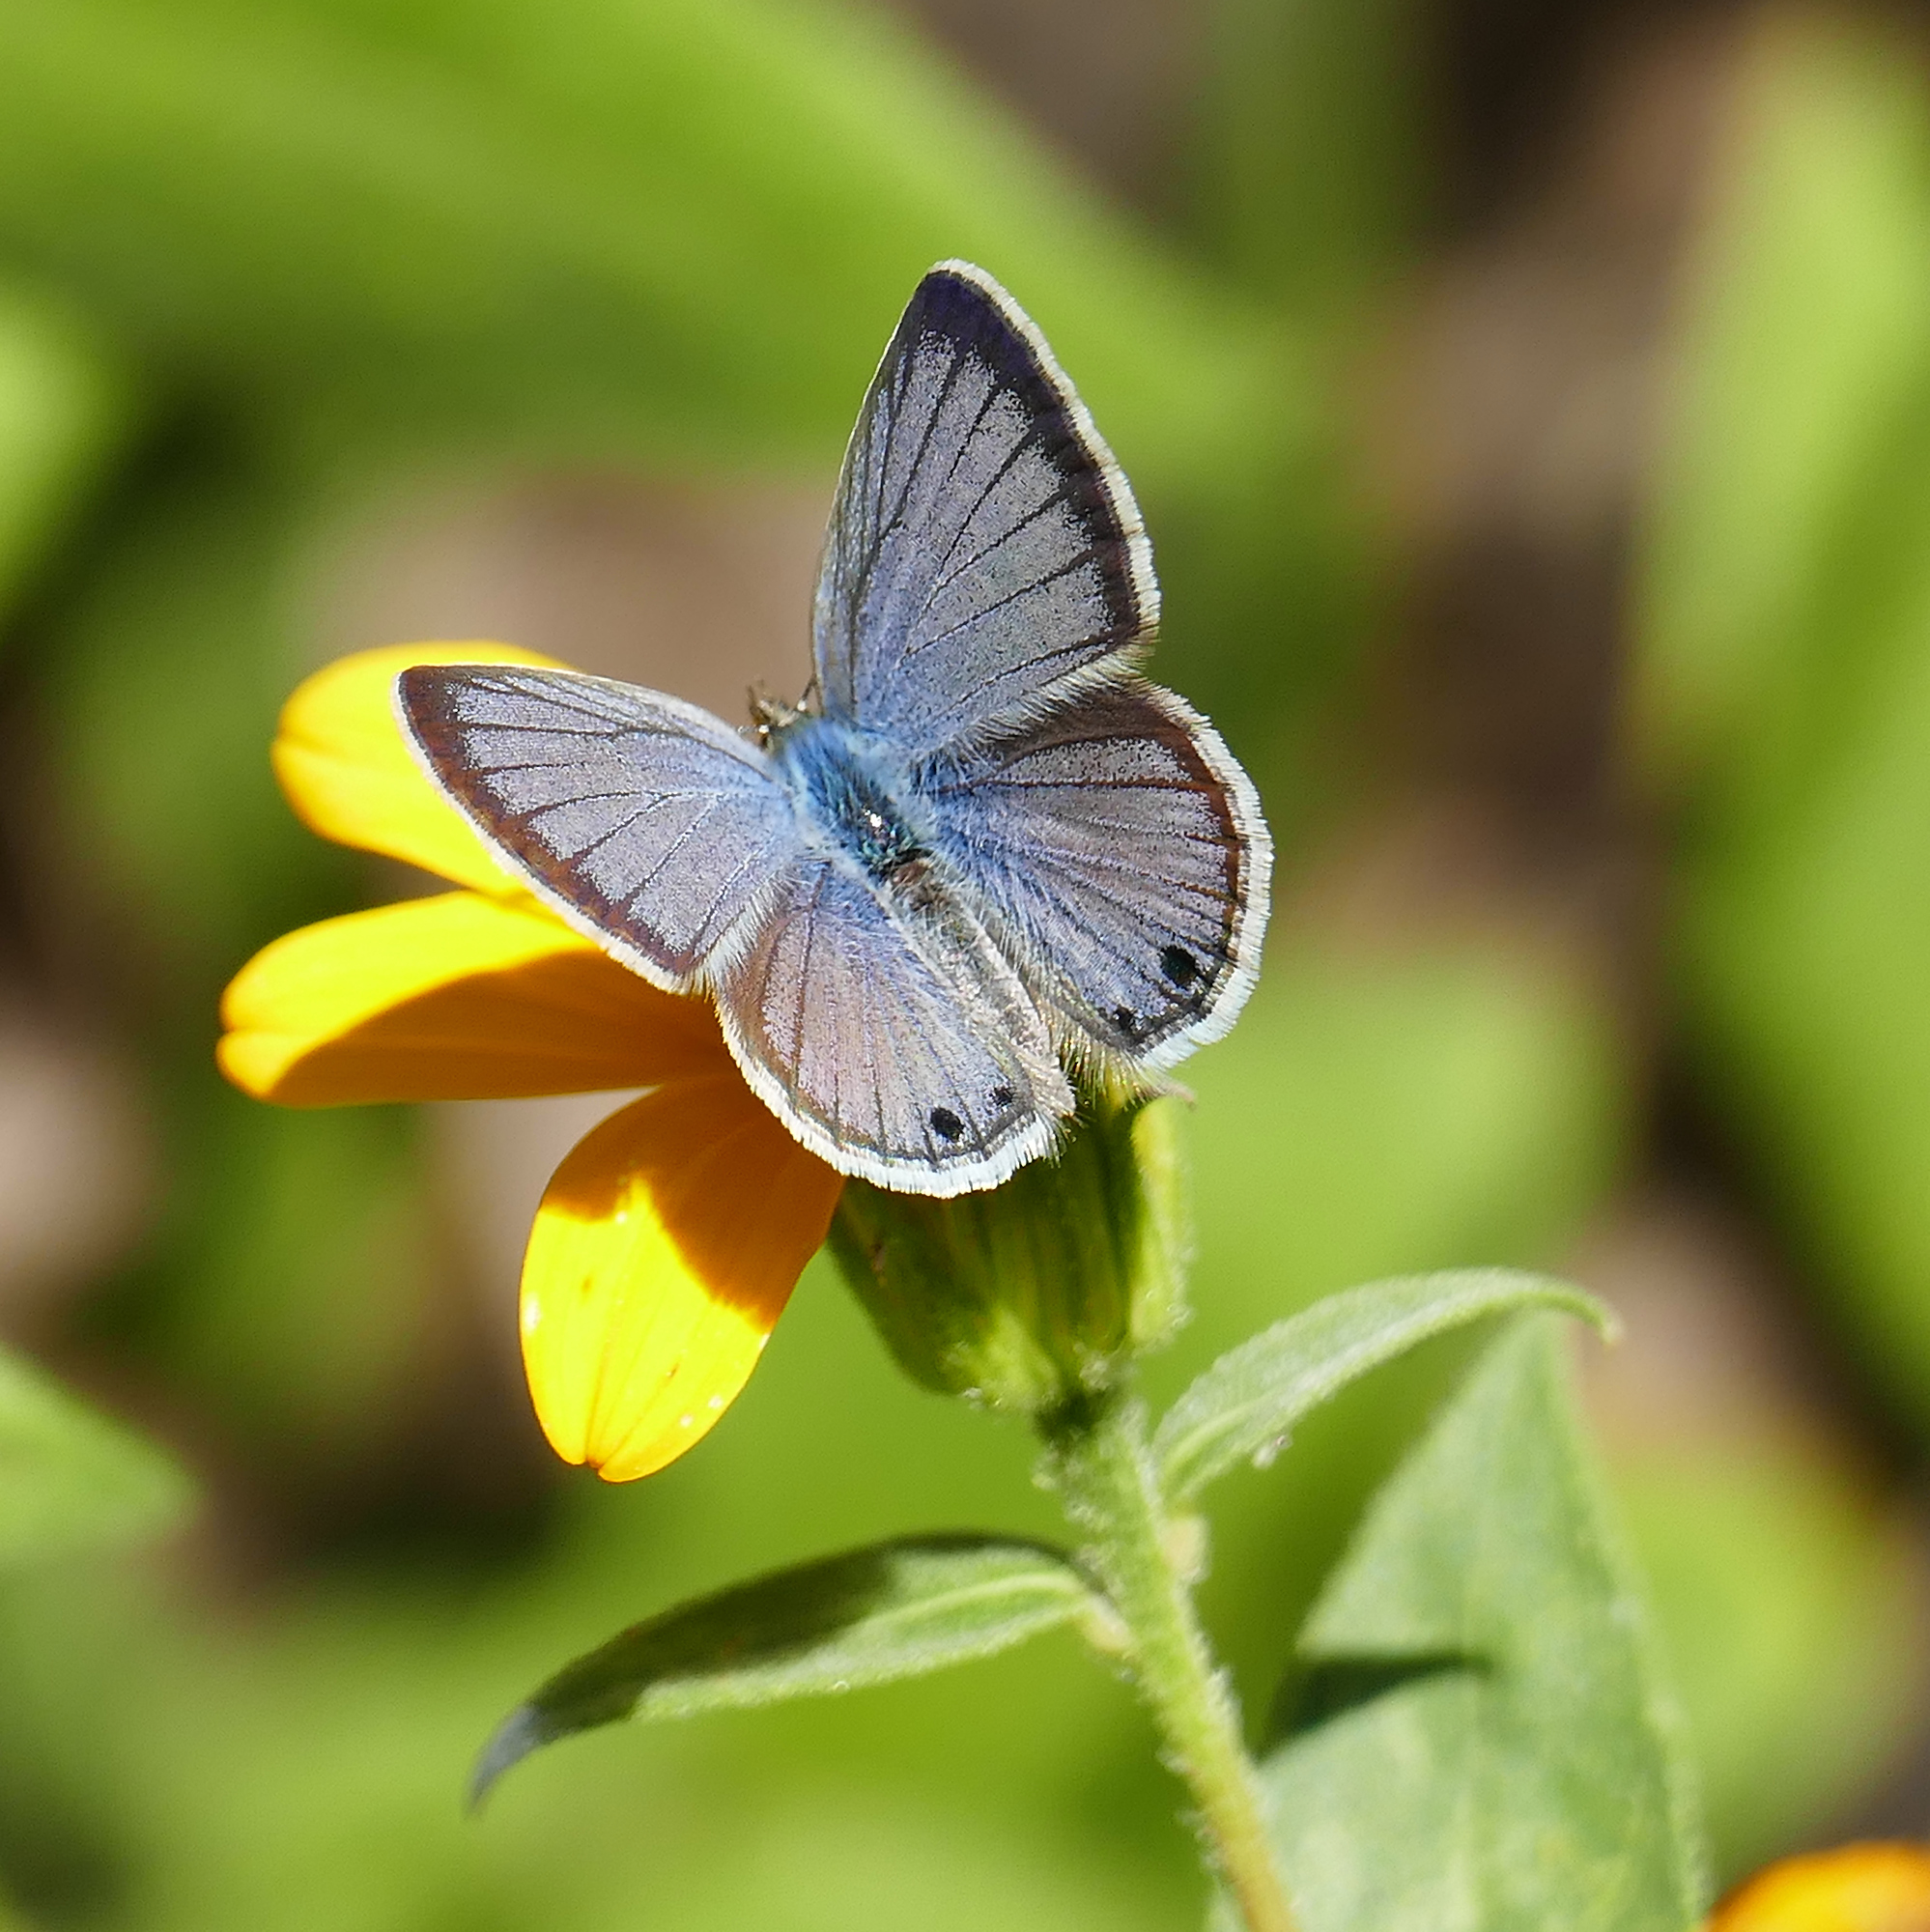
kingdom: Animalia
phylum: Arthropoda
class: Insecta
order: Lepidoptera
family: Lycaenidae
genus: Echinargus
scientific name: Echinargus isola
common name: Reakirt's blue
